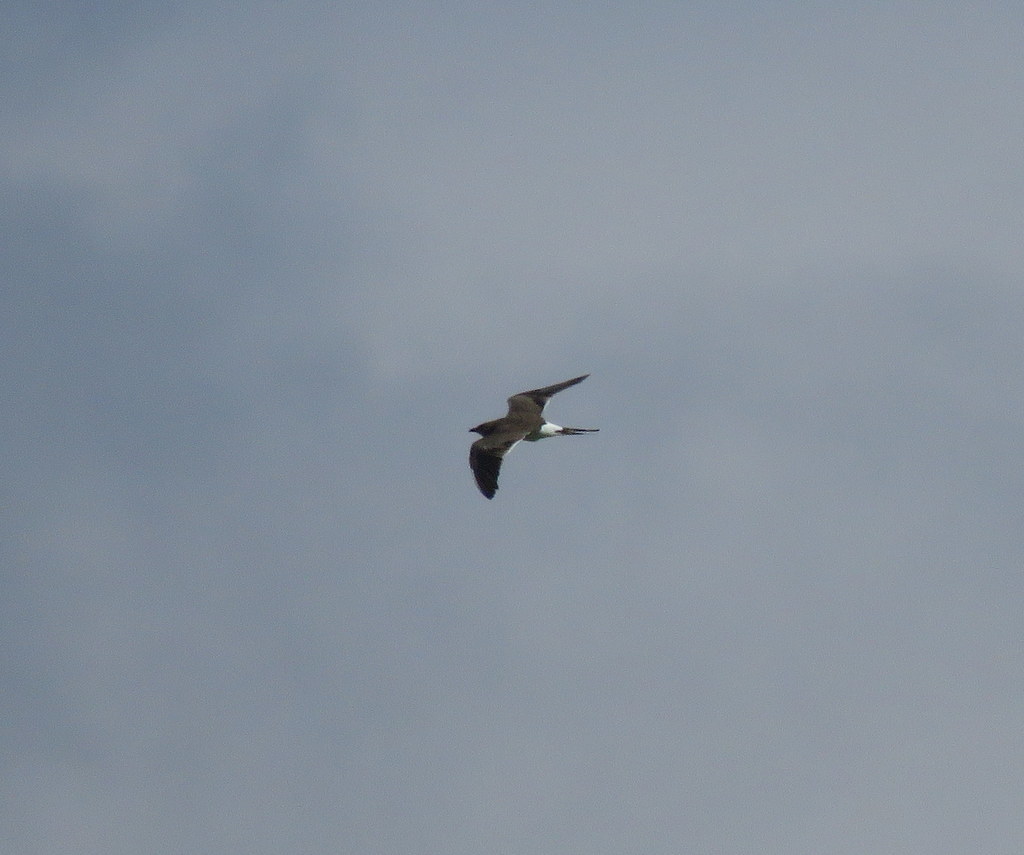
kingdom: Animalia
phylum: Chordata
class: Aves
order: Charadriiformes
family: Glareolidae
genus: Glareola
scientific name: Glareola pratincola
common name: Collared pratincole
